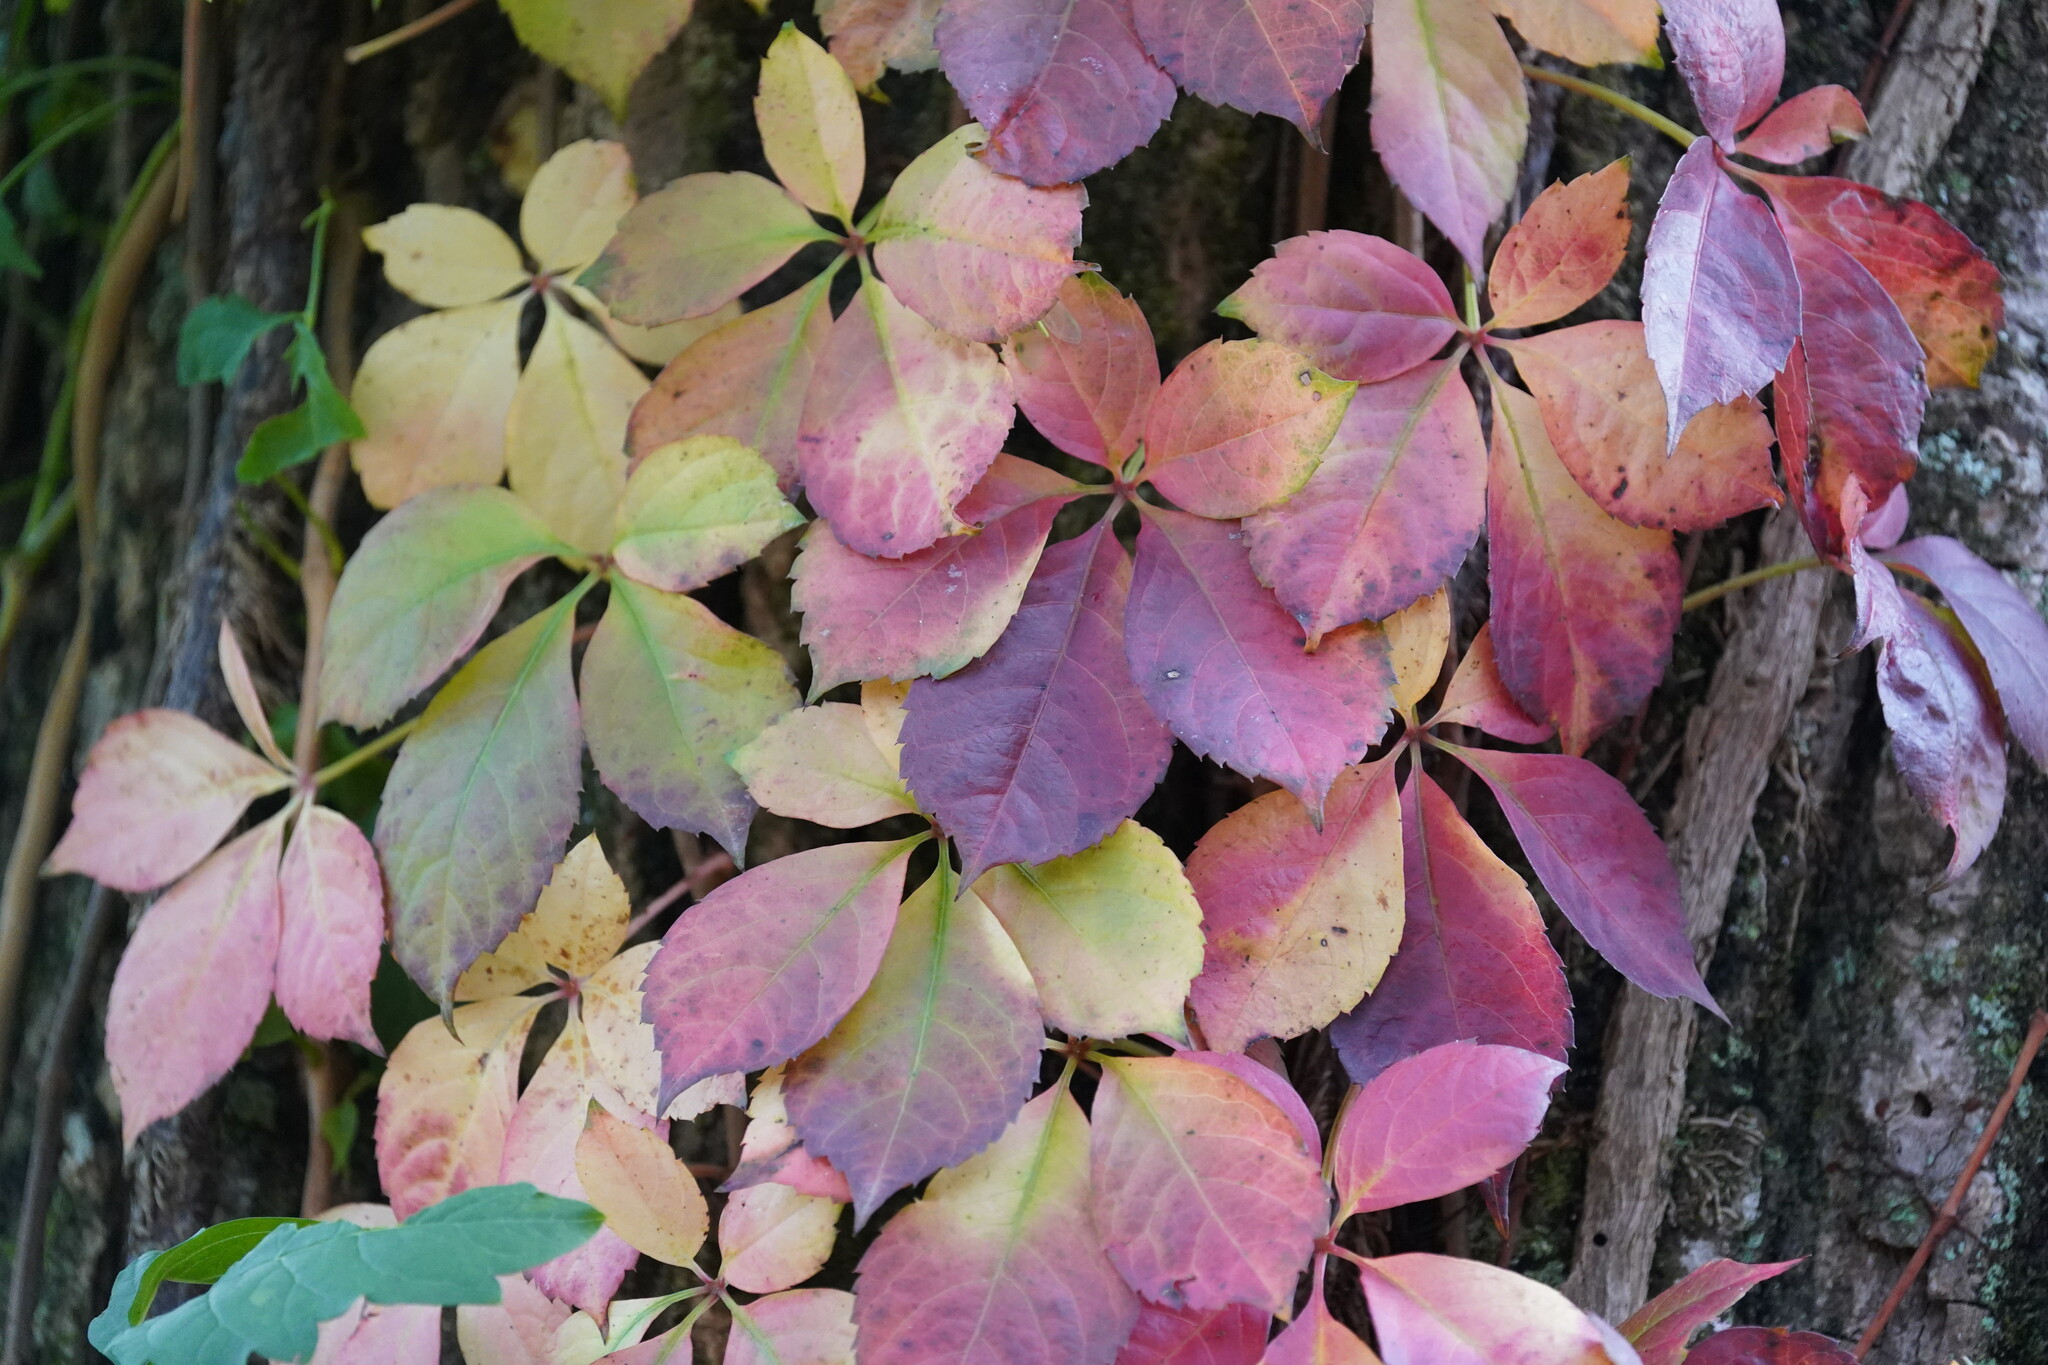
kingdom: Plantae
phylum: Tracheophyta
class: Magnoliopsida
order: Vitales
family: Vitaceae
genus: Parthenocissus
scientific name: Parthenocissus quinquefolia
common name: Virginia-creeper
